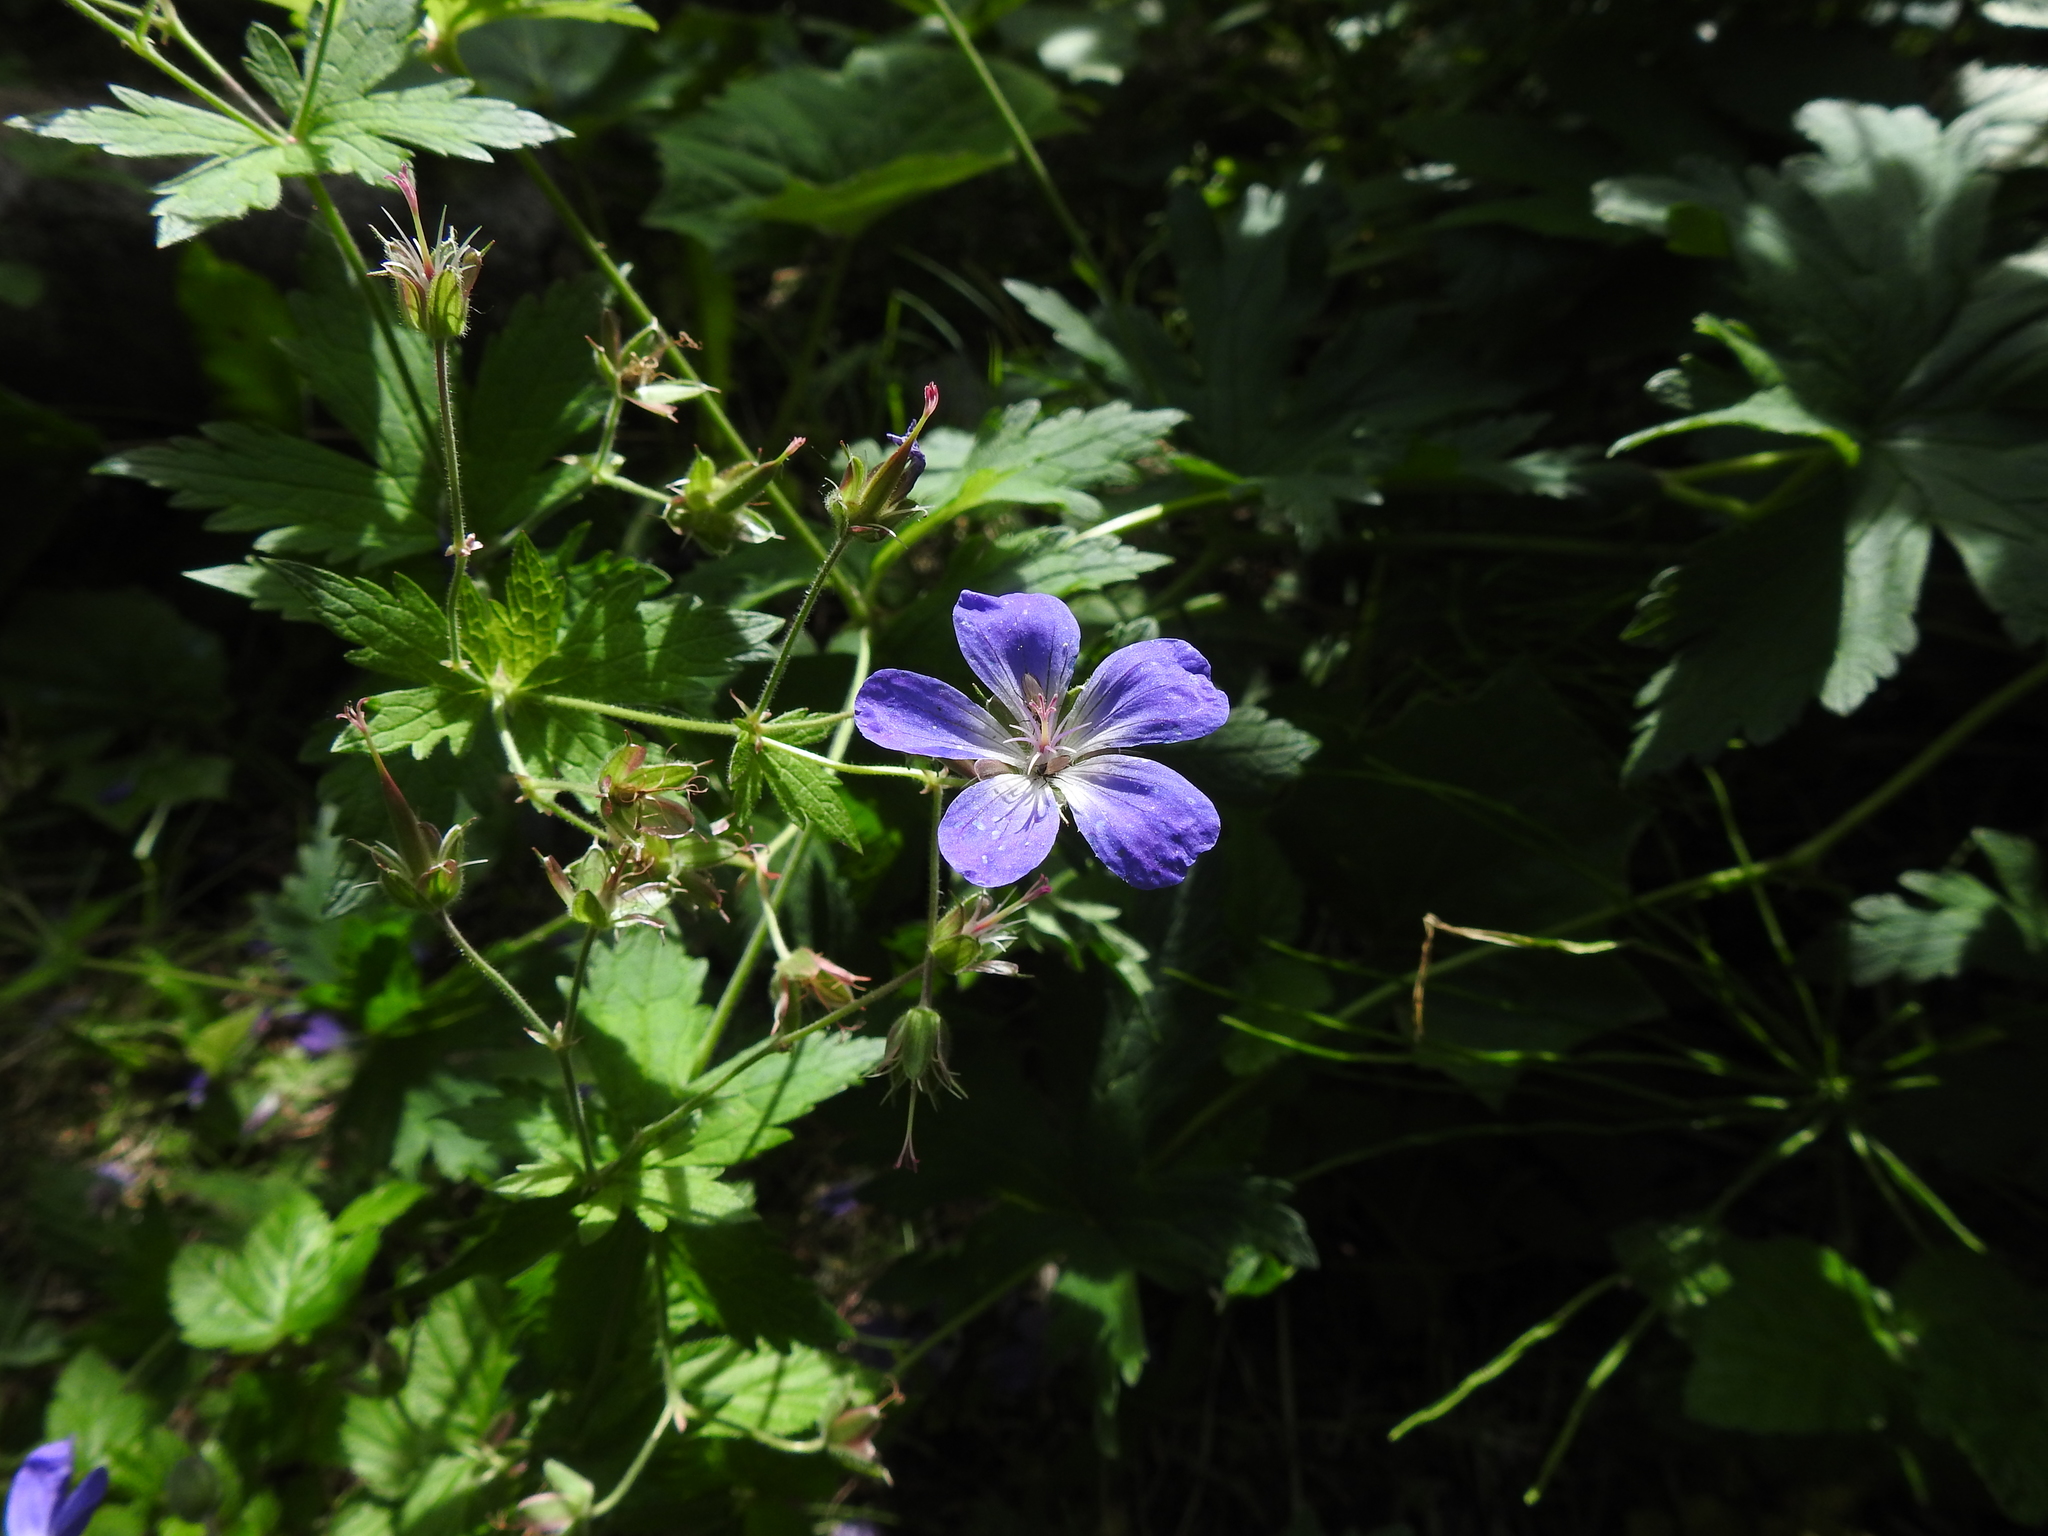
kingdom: Plantae
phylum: Tracheophyta
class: Magnoliopsida
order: Geraniales
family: Geraniaceae
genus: Geranium
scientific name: Geranium sylvaticum
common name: Wood crane's-bill
